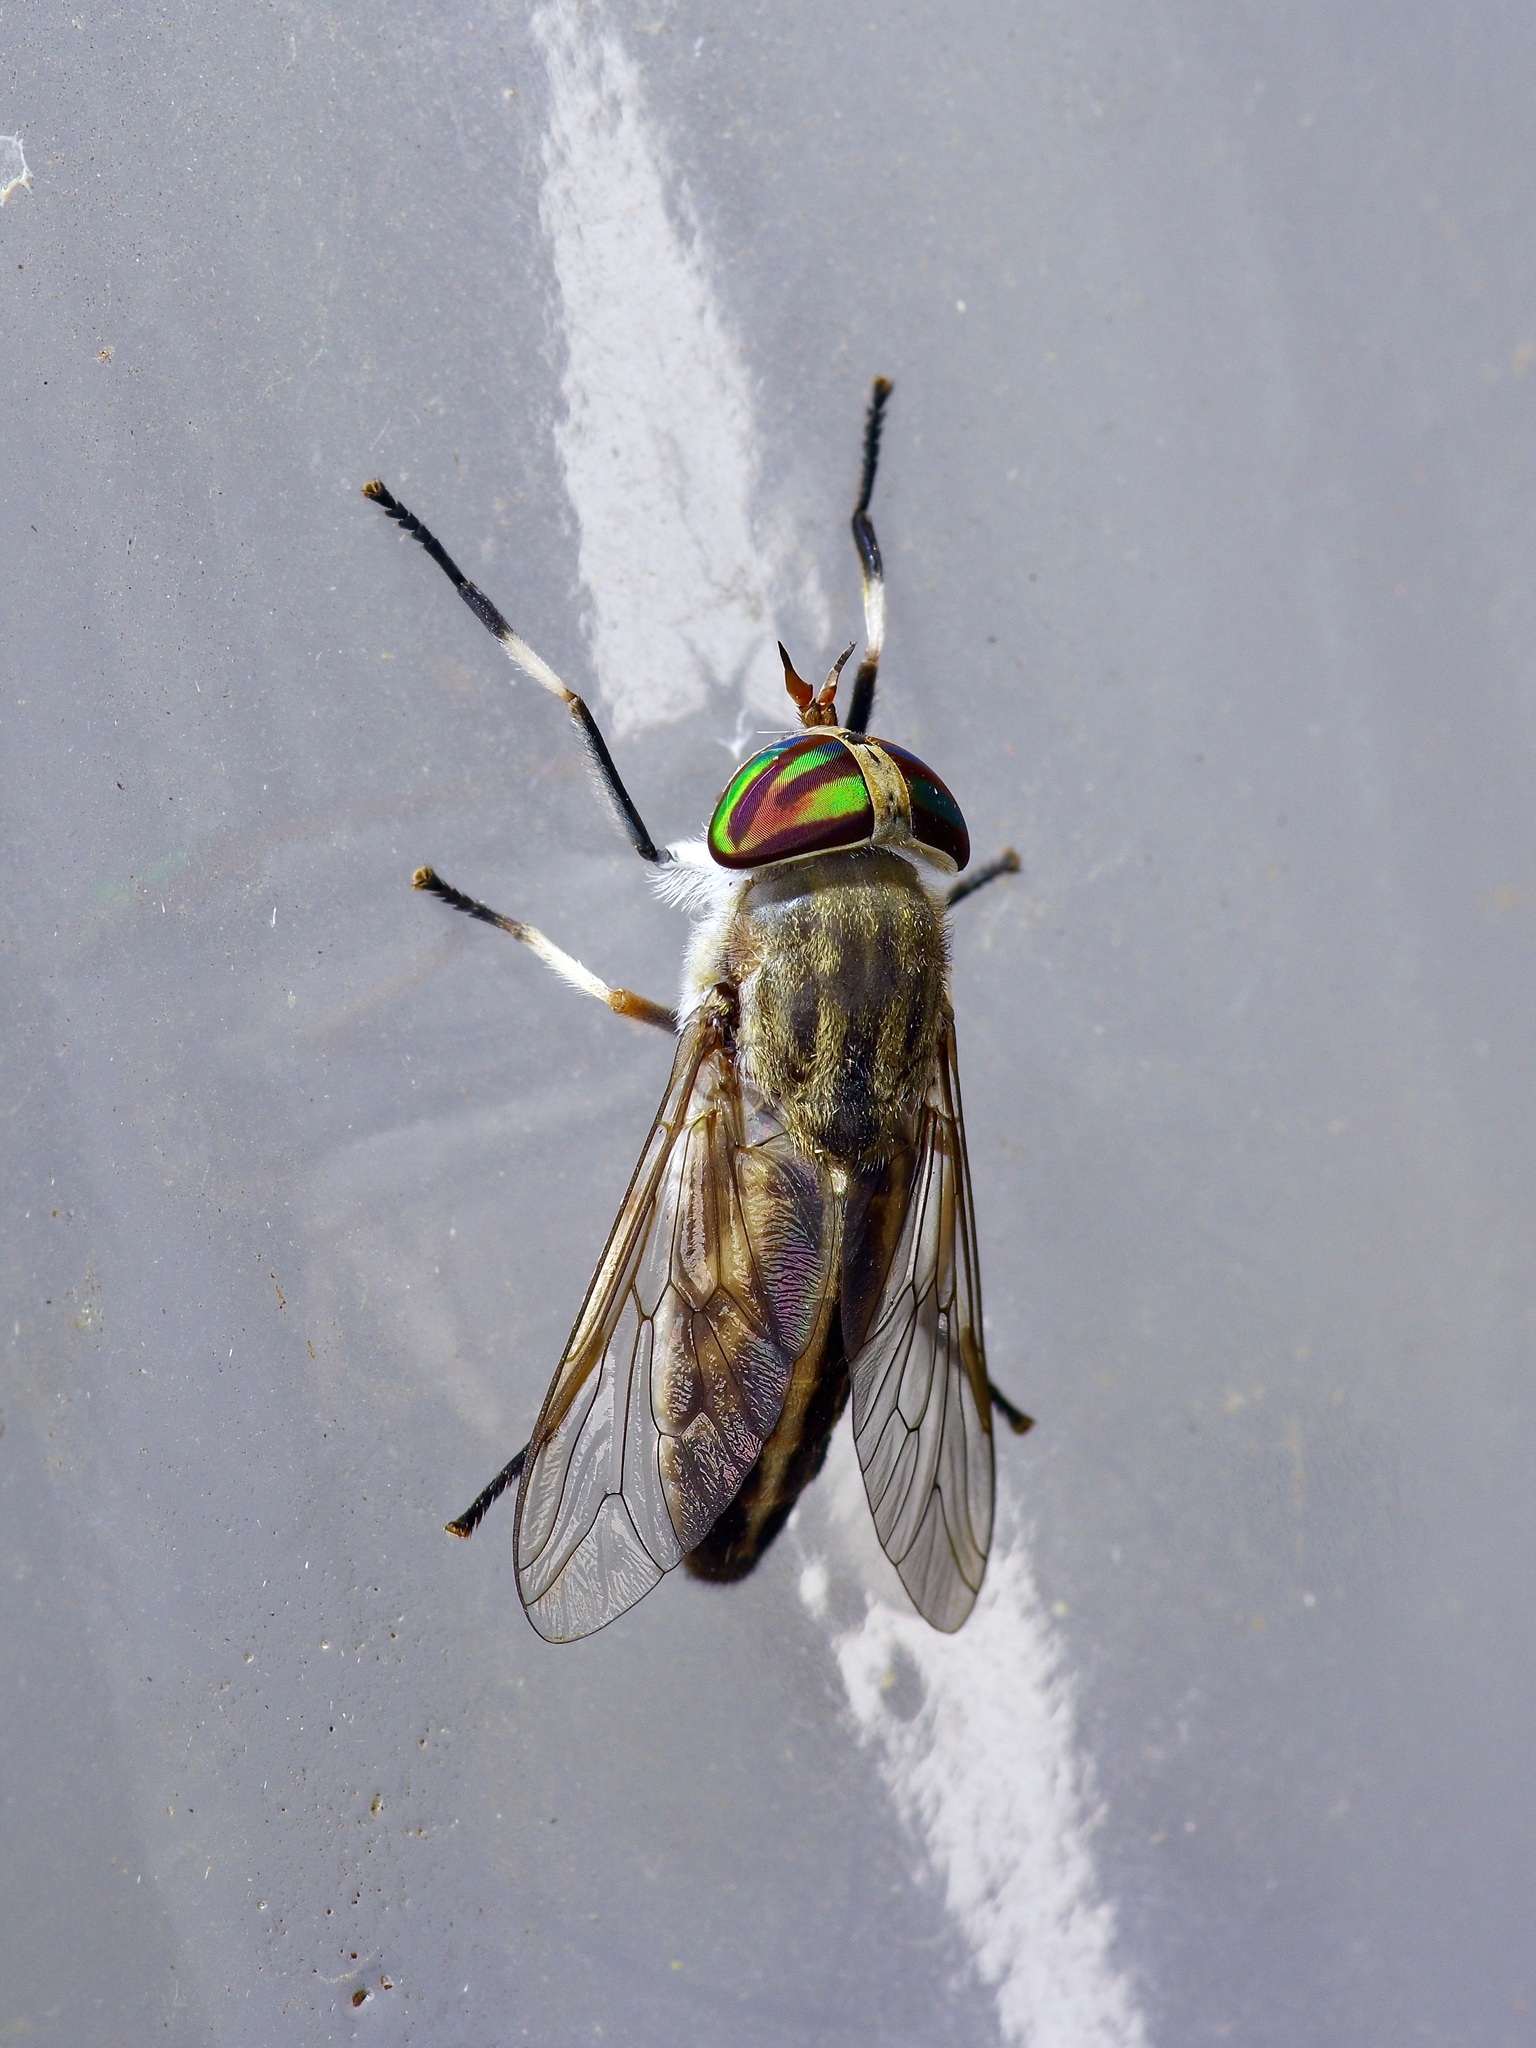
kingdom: Animalia
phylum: Arthropoda
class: Insecta
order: Diptera
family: Tabanidae
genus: Tabanus
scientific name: Tabanus lineola
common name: Striped horse fly
